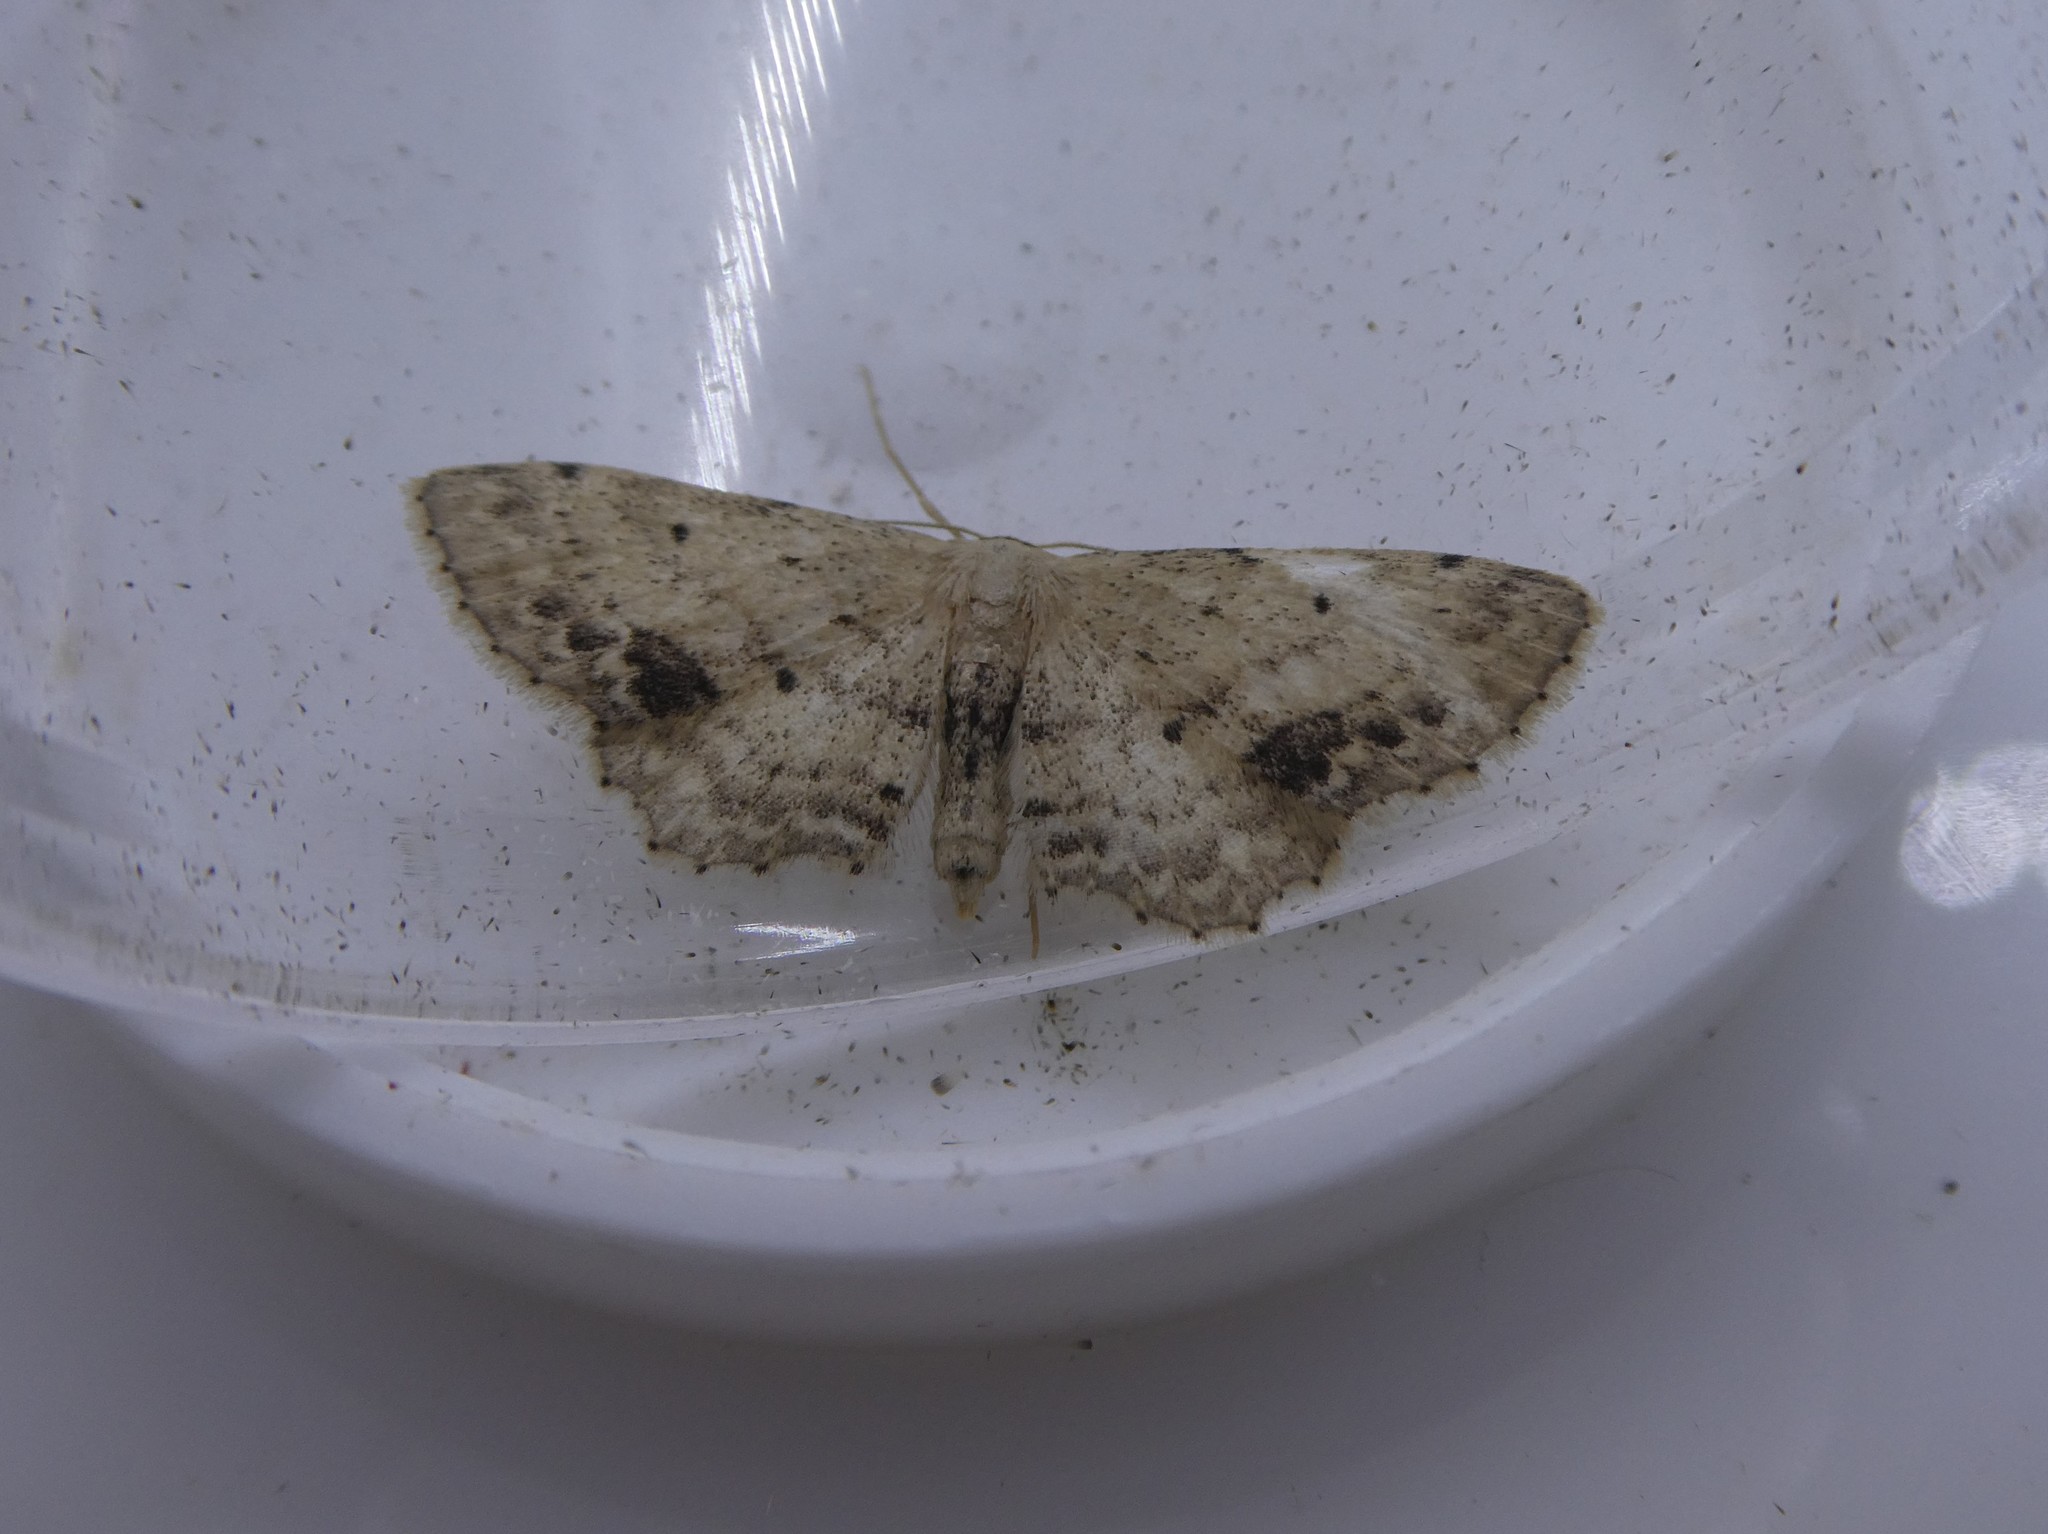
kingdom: Animalia
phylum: Arthropoda
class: Insecta
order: Lepidoptera
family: Geometridae
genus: Idaea
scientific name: Idaea dimidiata
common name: Single-dotted wave
